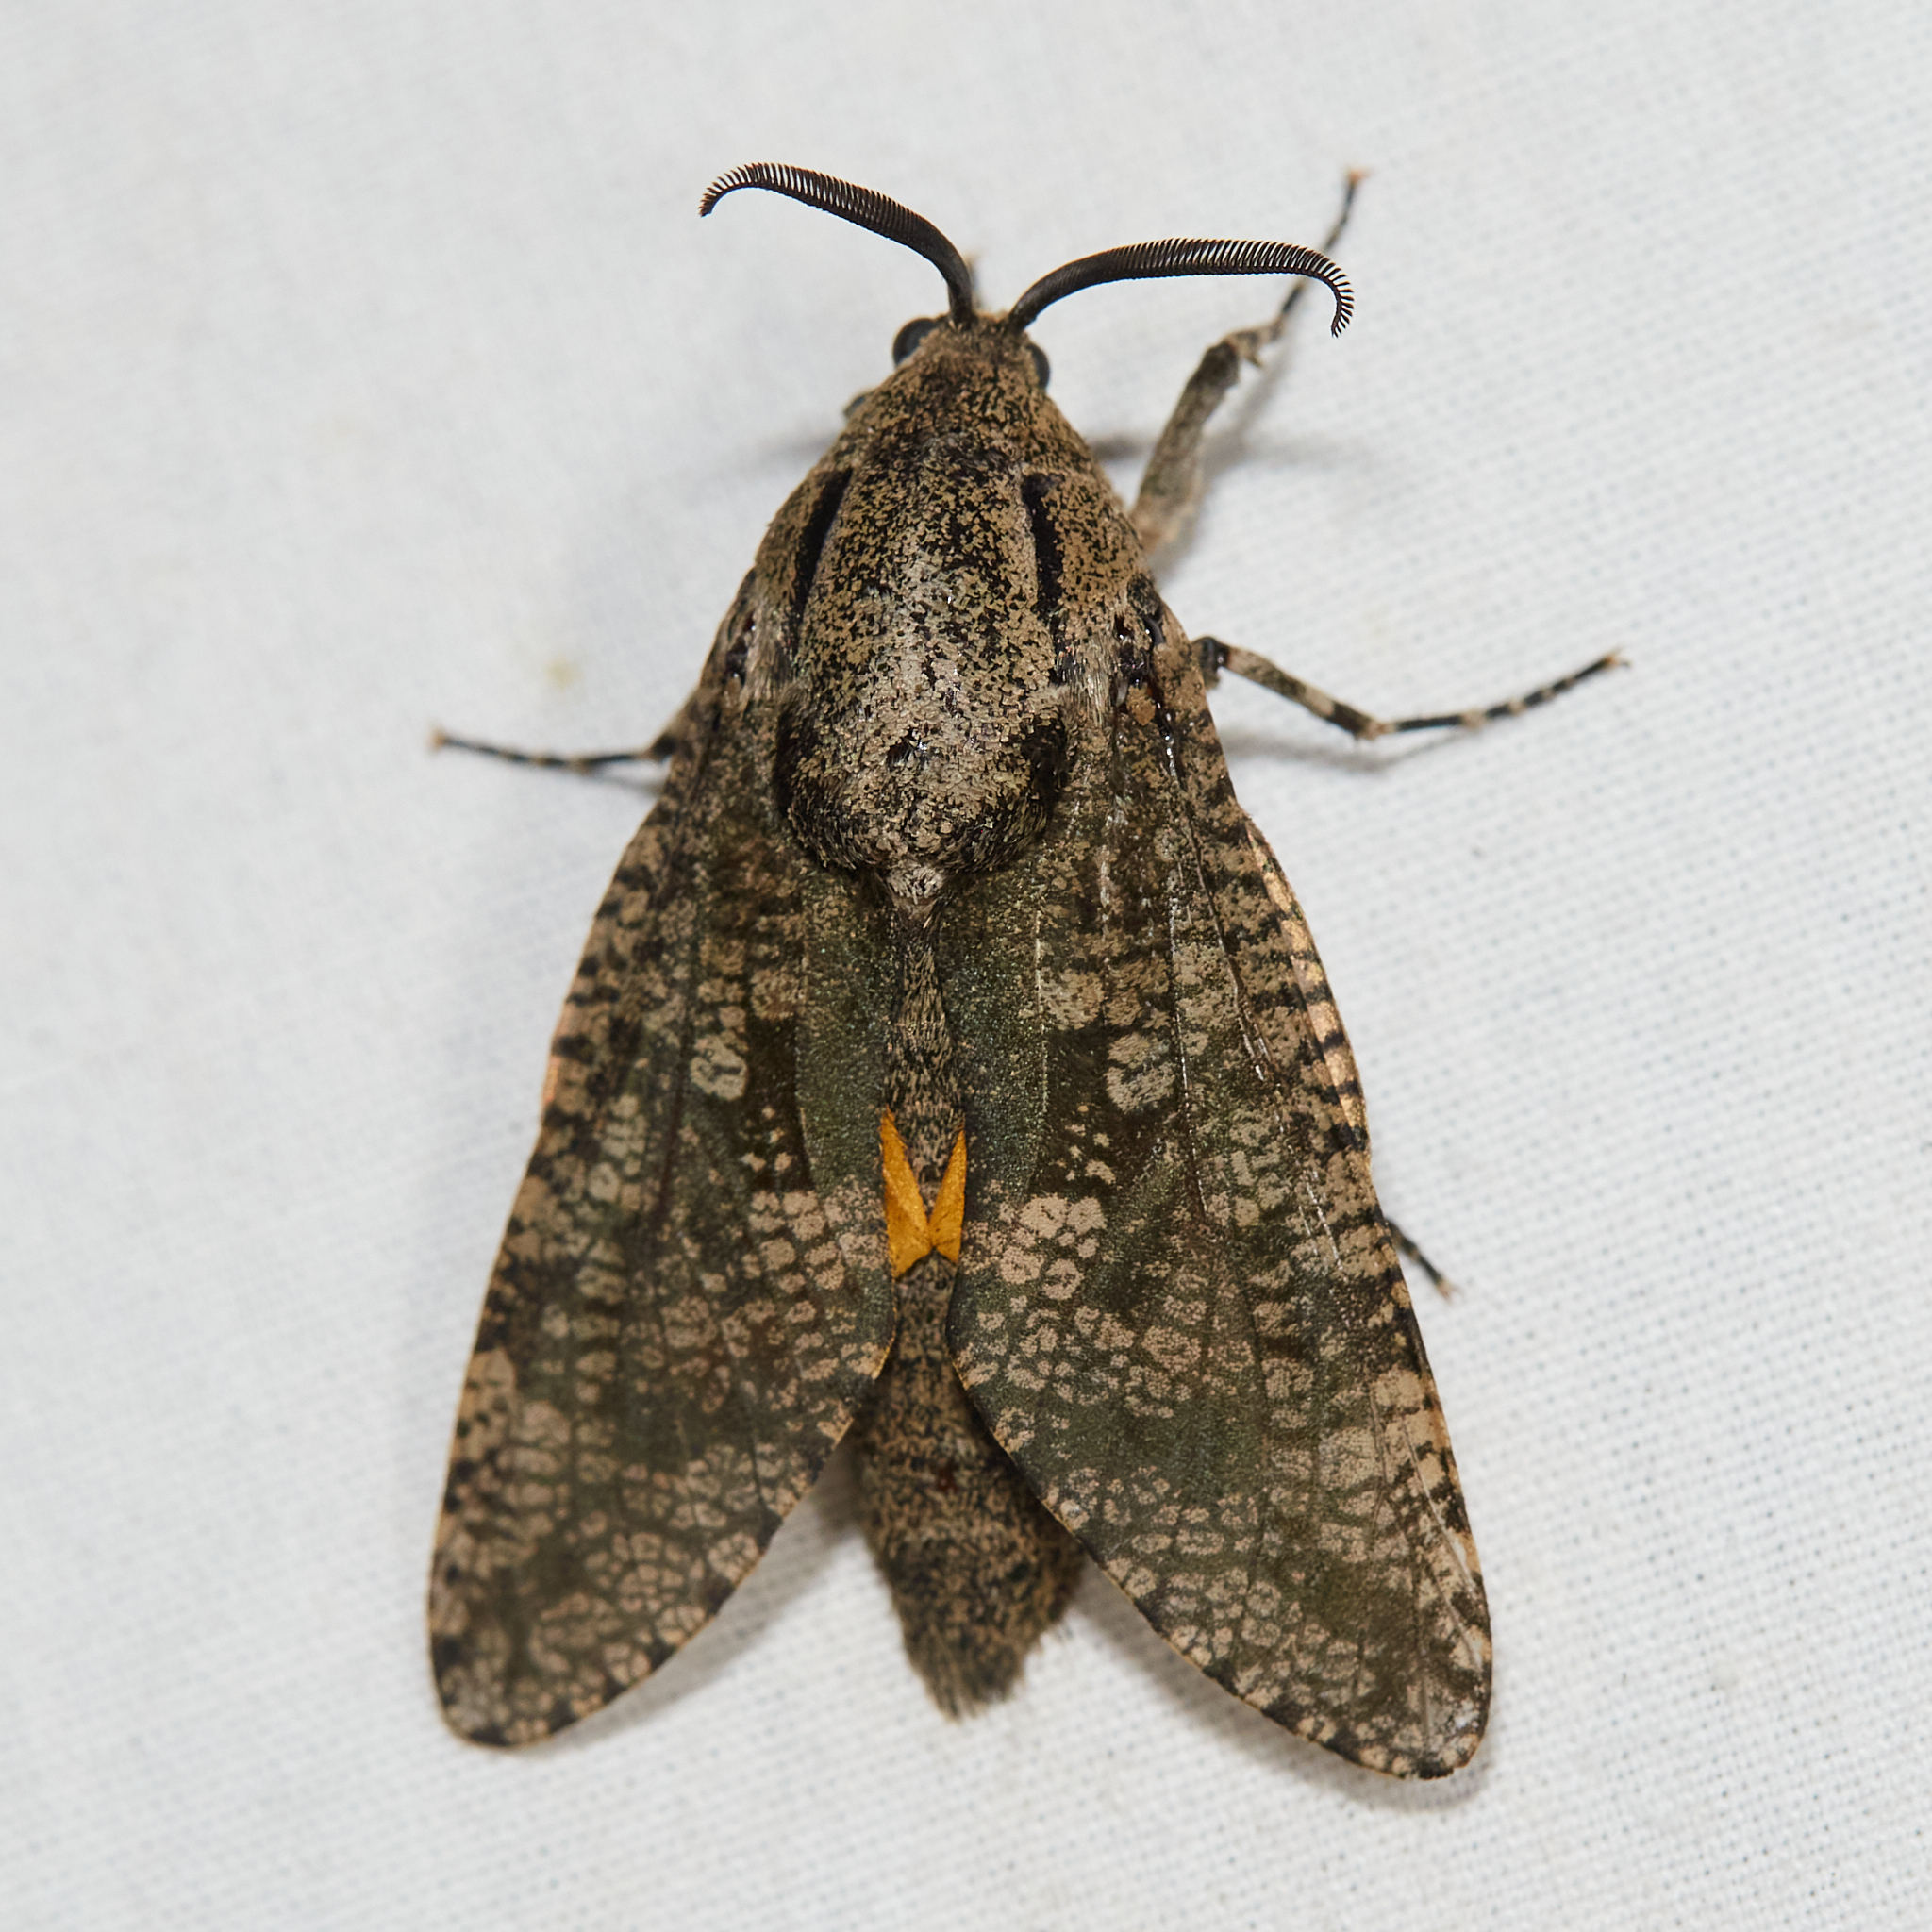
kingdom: Animalia
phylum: Arthropoda
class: Insecta
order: Lepidoptera
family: Cossidae
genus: Prionoxystus
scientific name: Prionoxystus robiniae
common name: Carpenterworm
